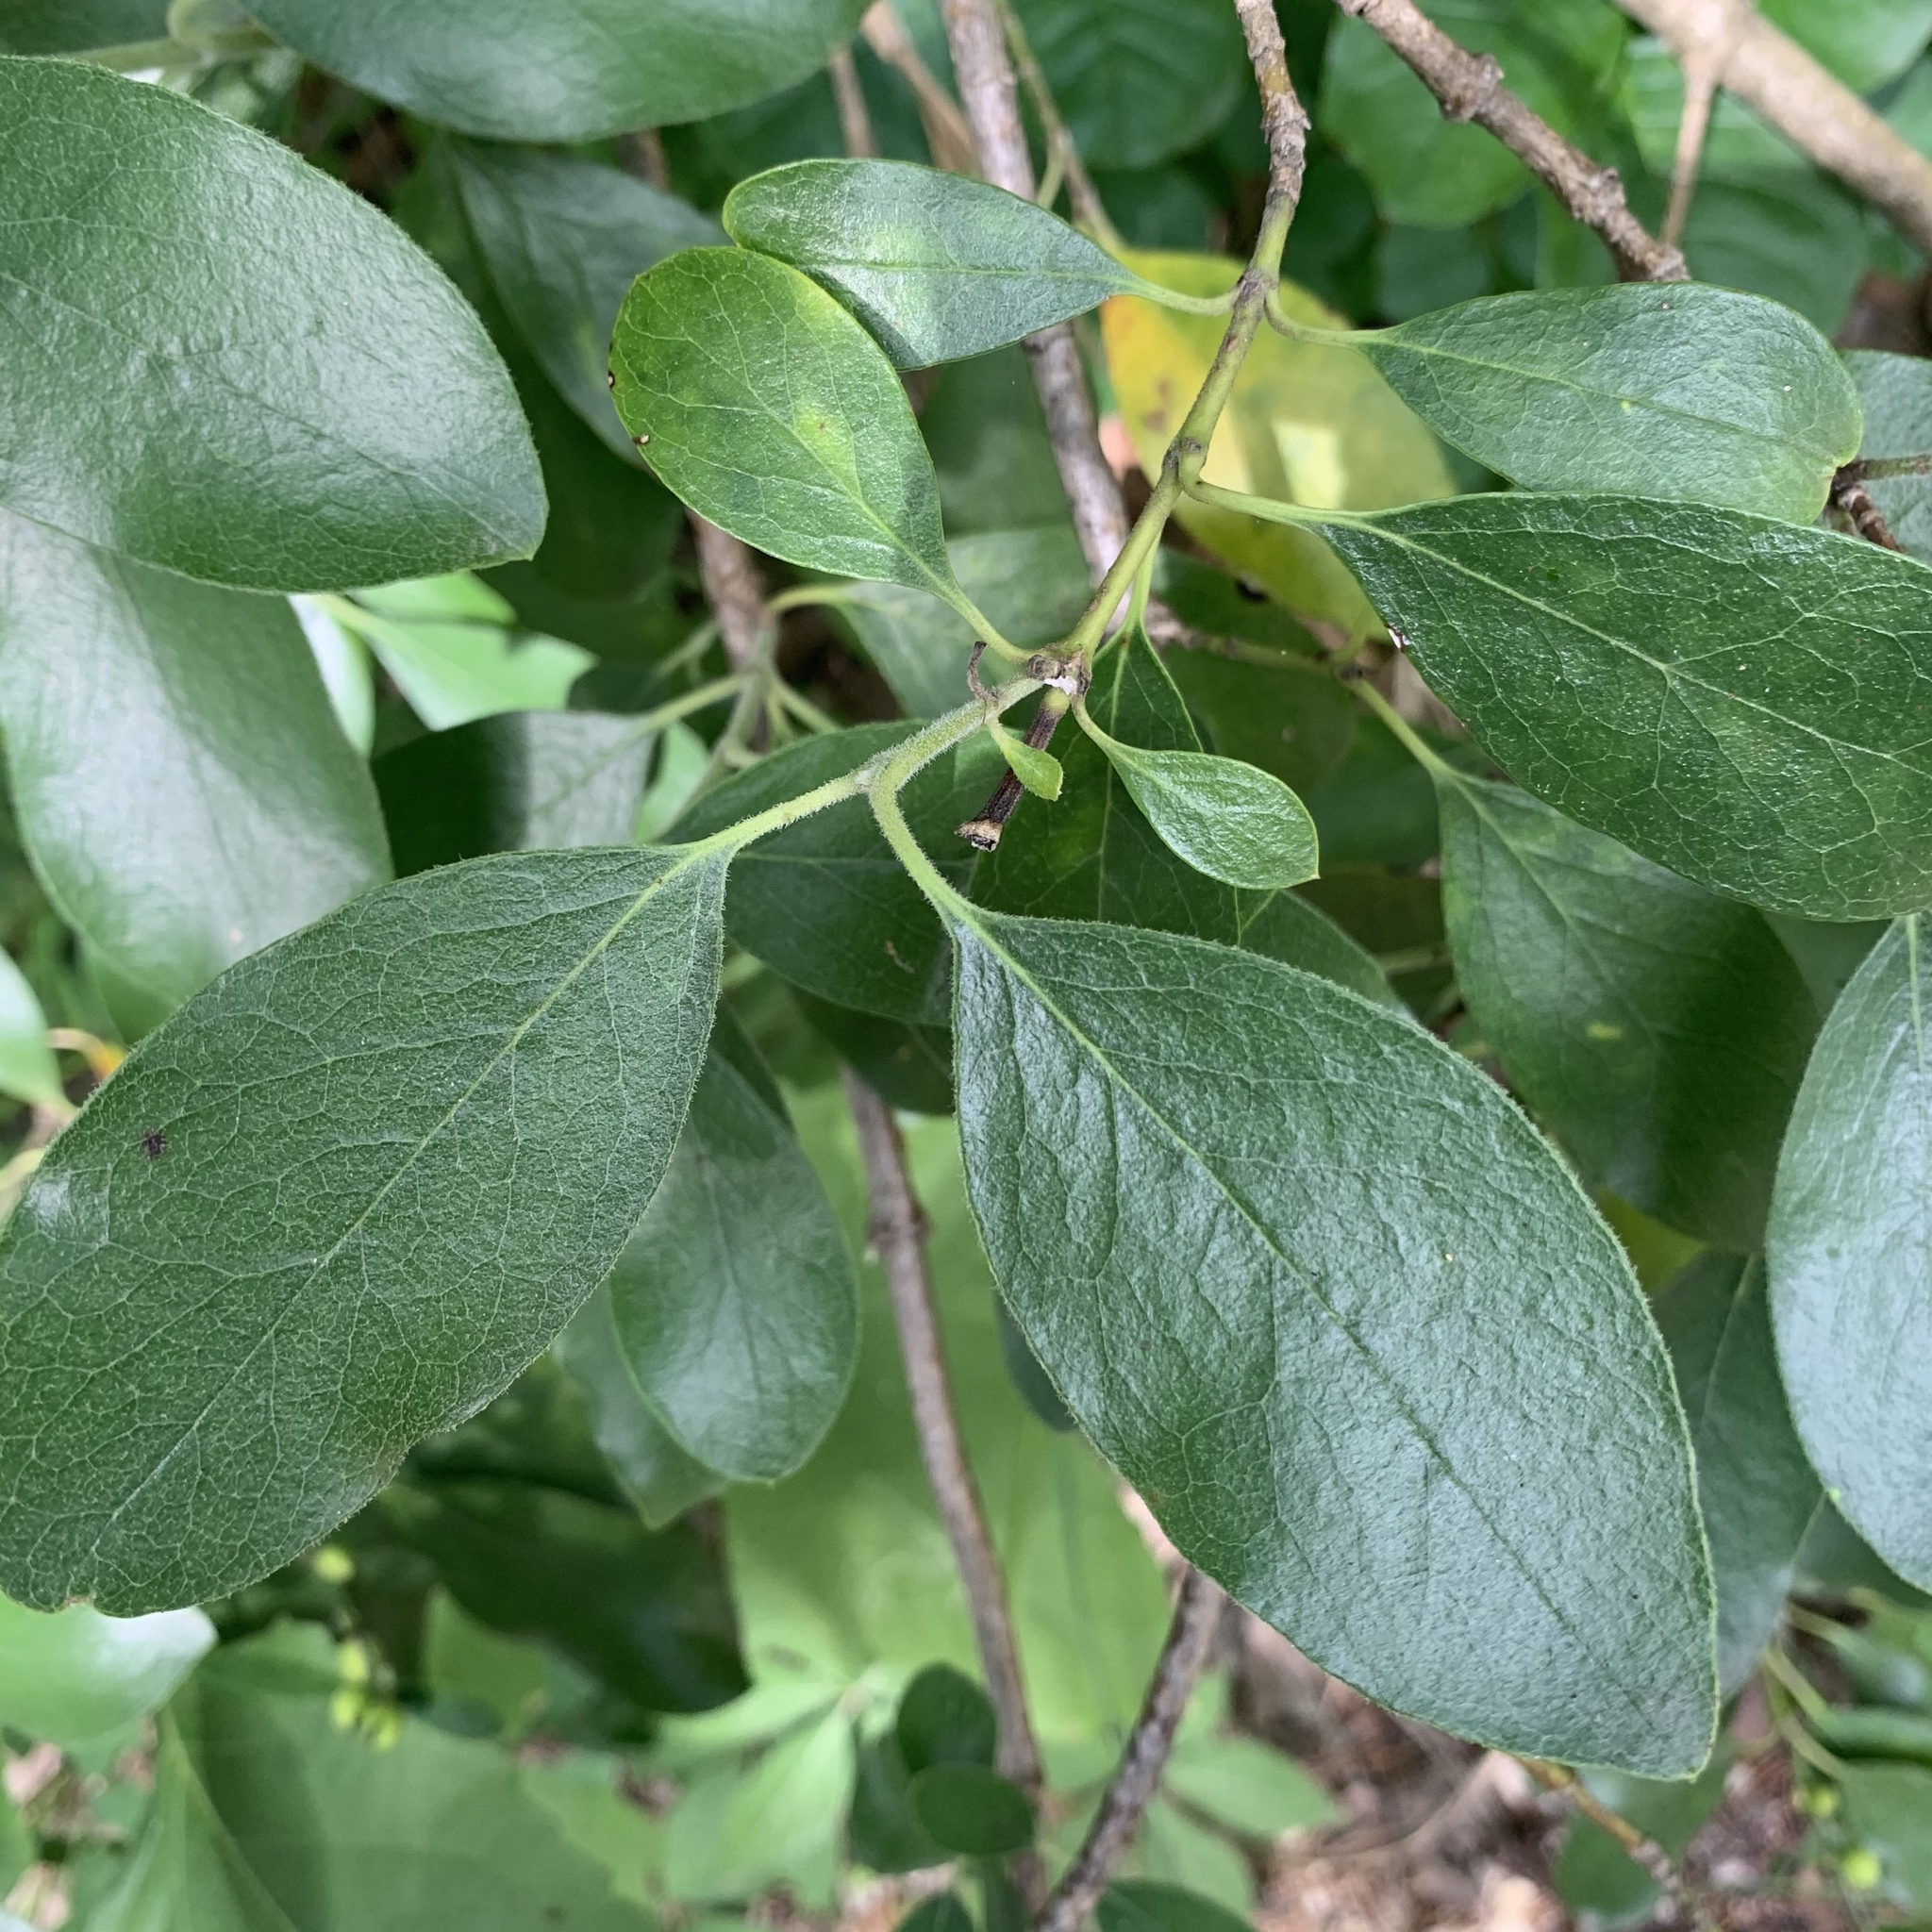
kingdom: Plantae
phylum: Tracheophyta
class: Magnoliopsida
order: Garryales
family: Garryaceae
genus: Garrya
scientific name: Garrya lindheimeri
